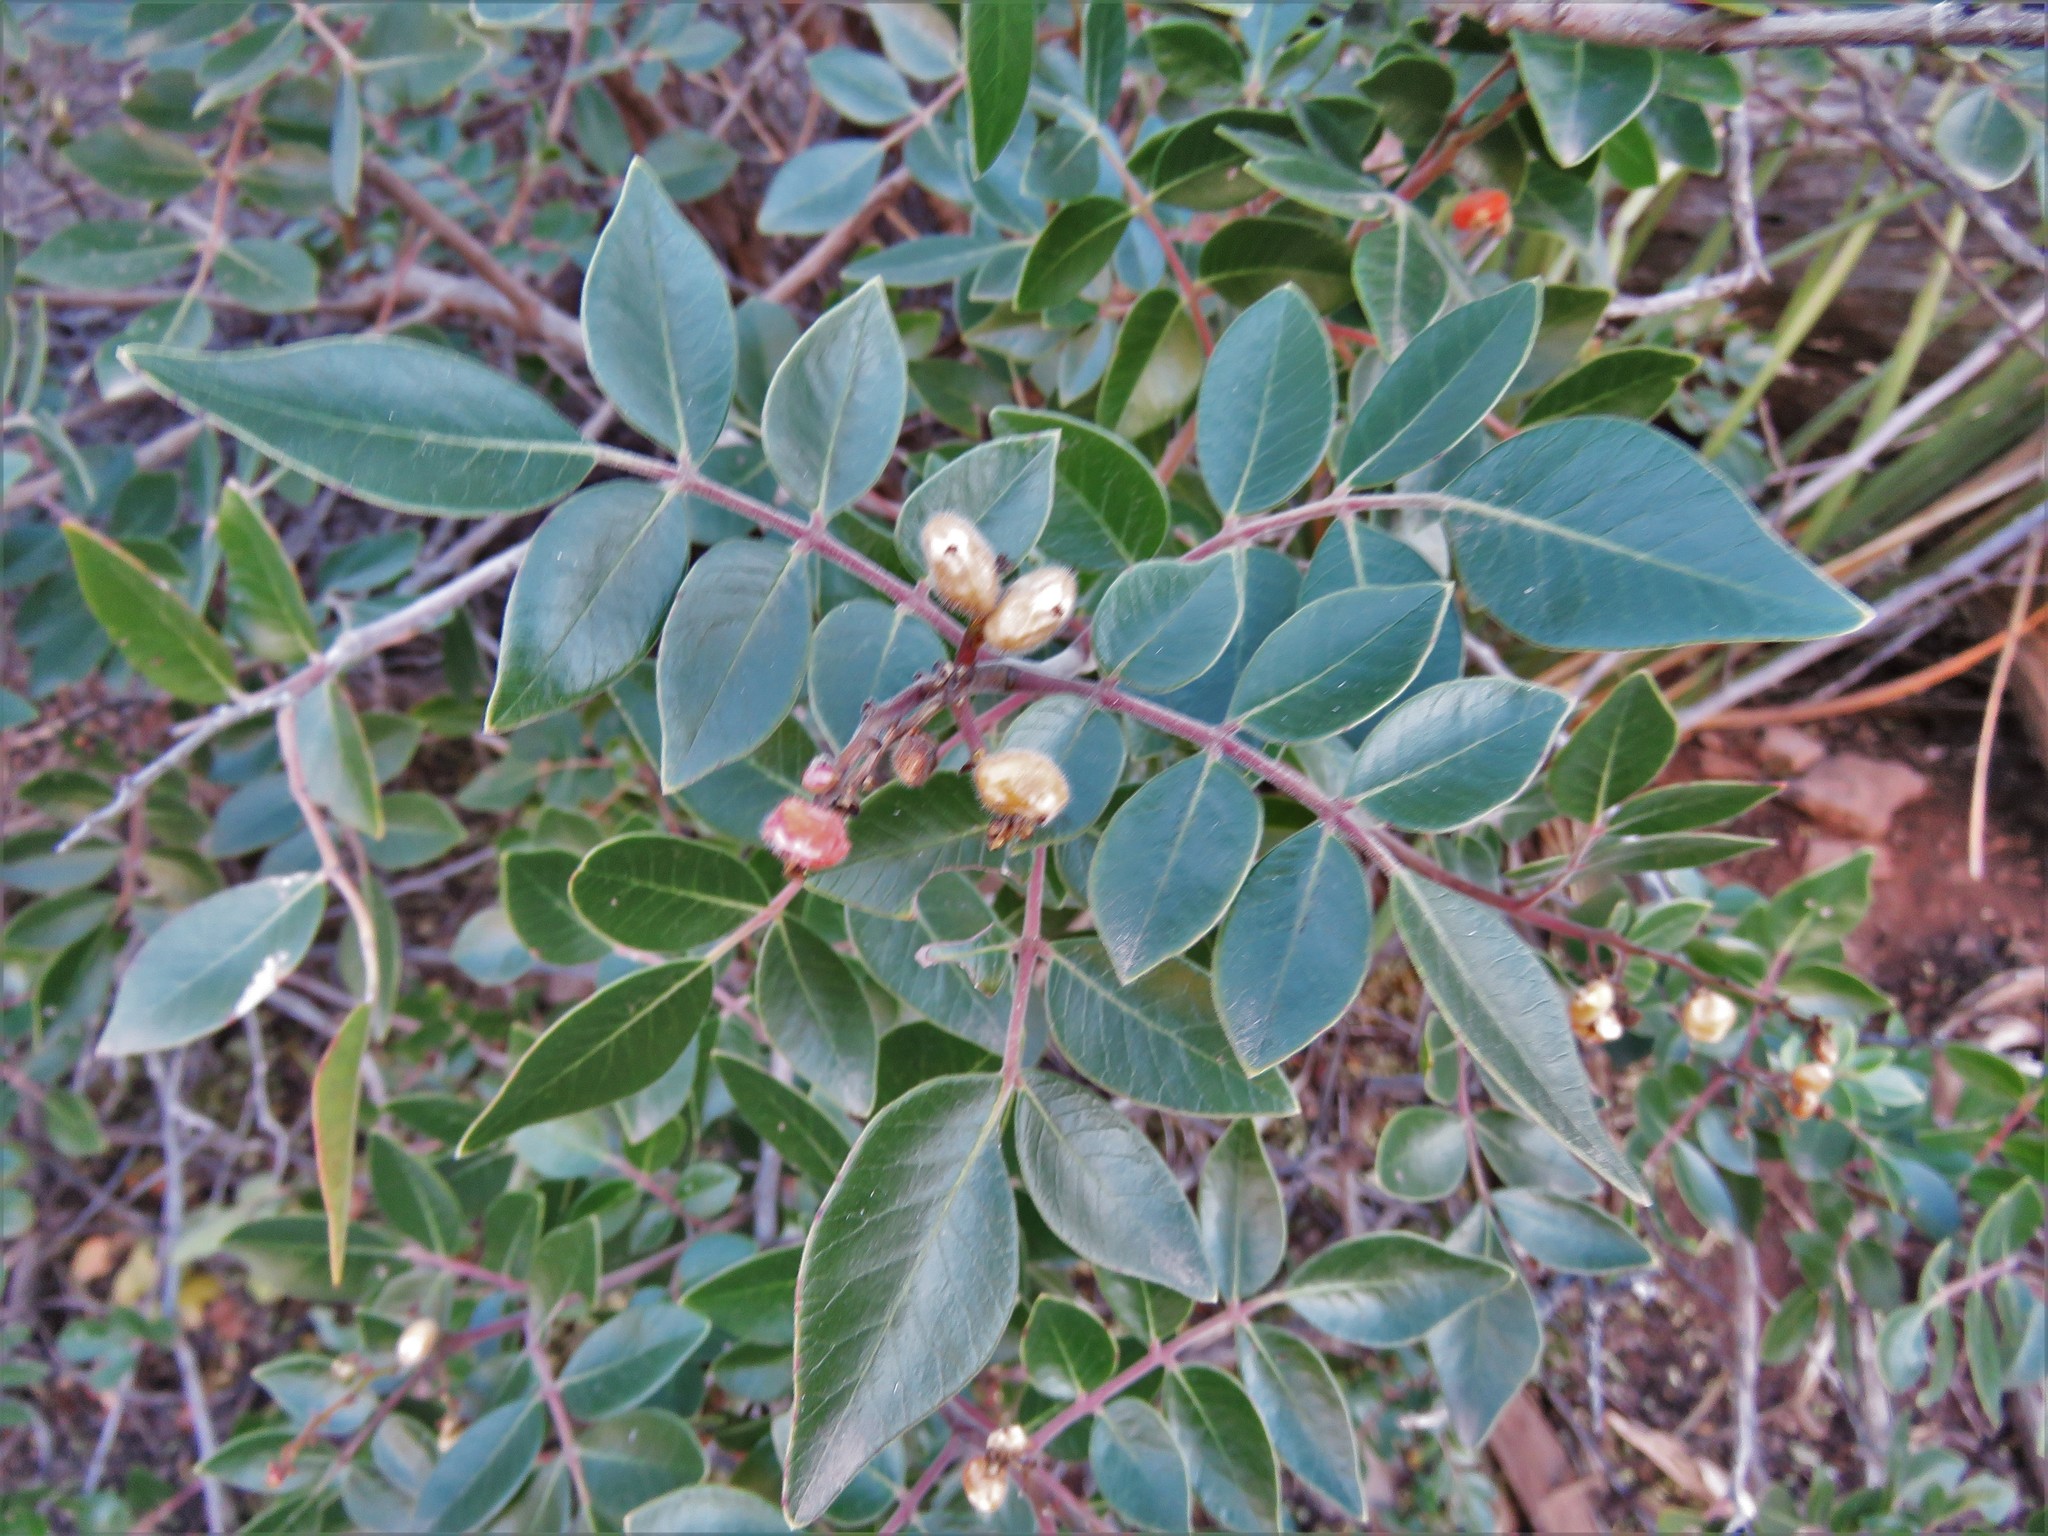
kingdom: Plantae
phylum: Tracheophyta
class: Magnoliopsida
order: Sapindales
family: Anacardiaceae
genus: Rhus
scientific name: Rhus virens
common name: Evergreen sumac
